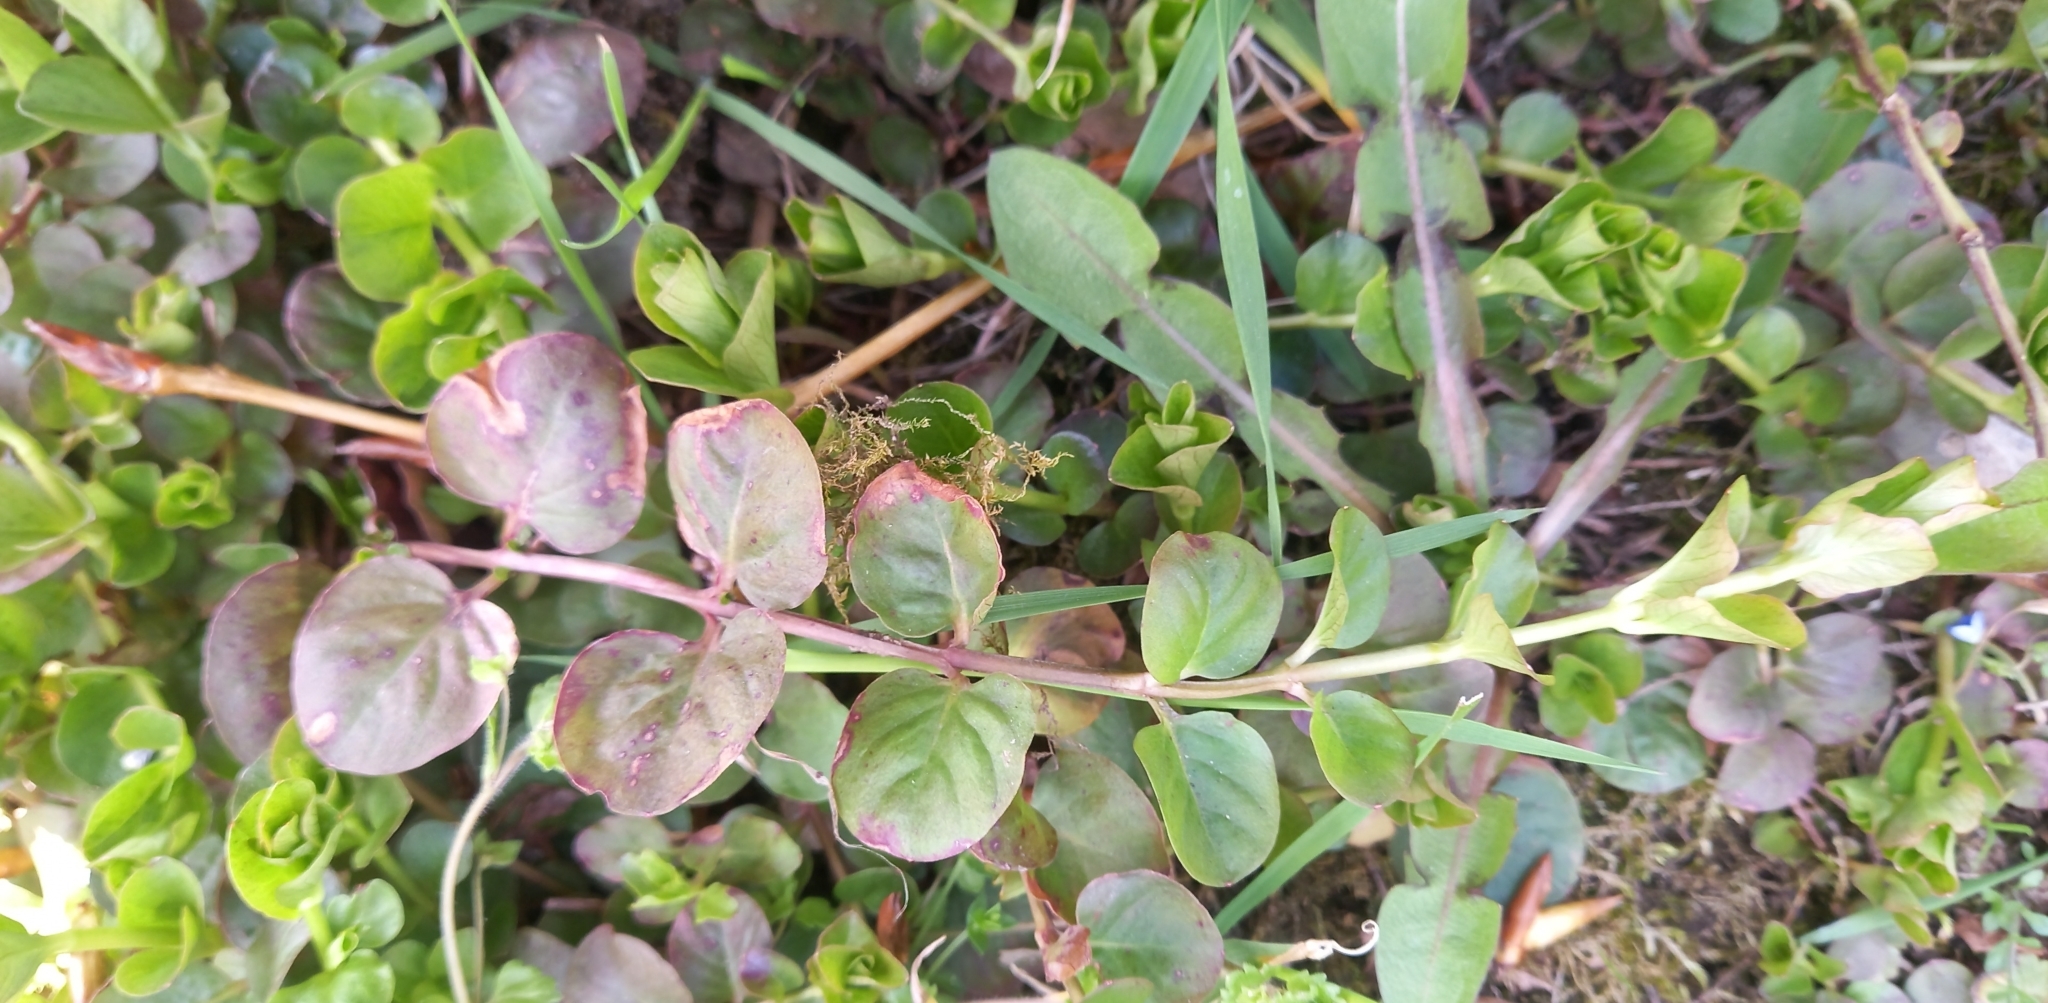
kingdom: Plantae
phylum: Tracheophyta
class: Magnoliopsida
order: Ericales
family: Primulaceae
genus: Lysimachia
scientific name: Lysimachia nummularia
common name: Moneywort
